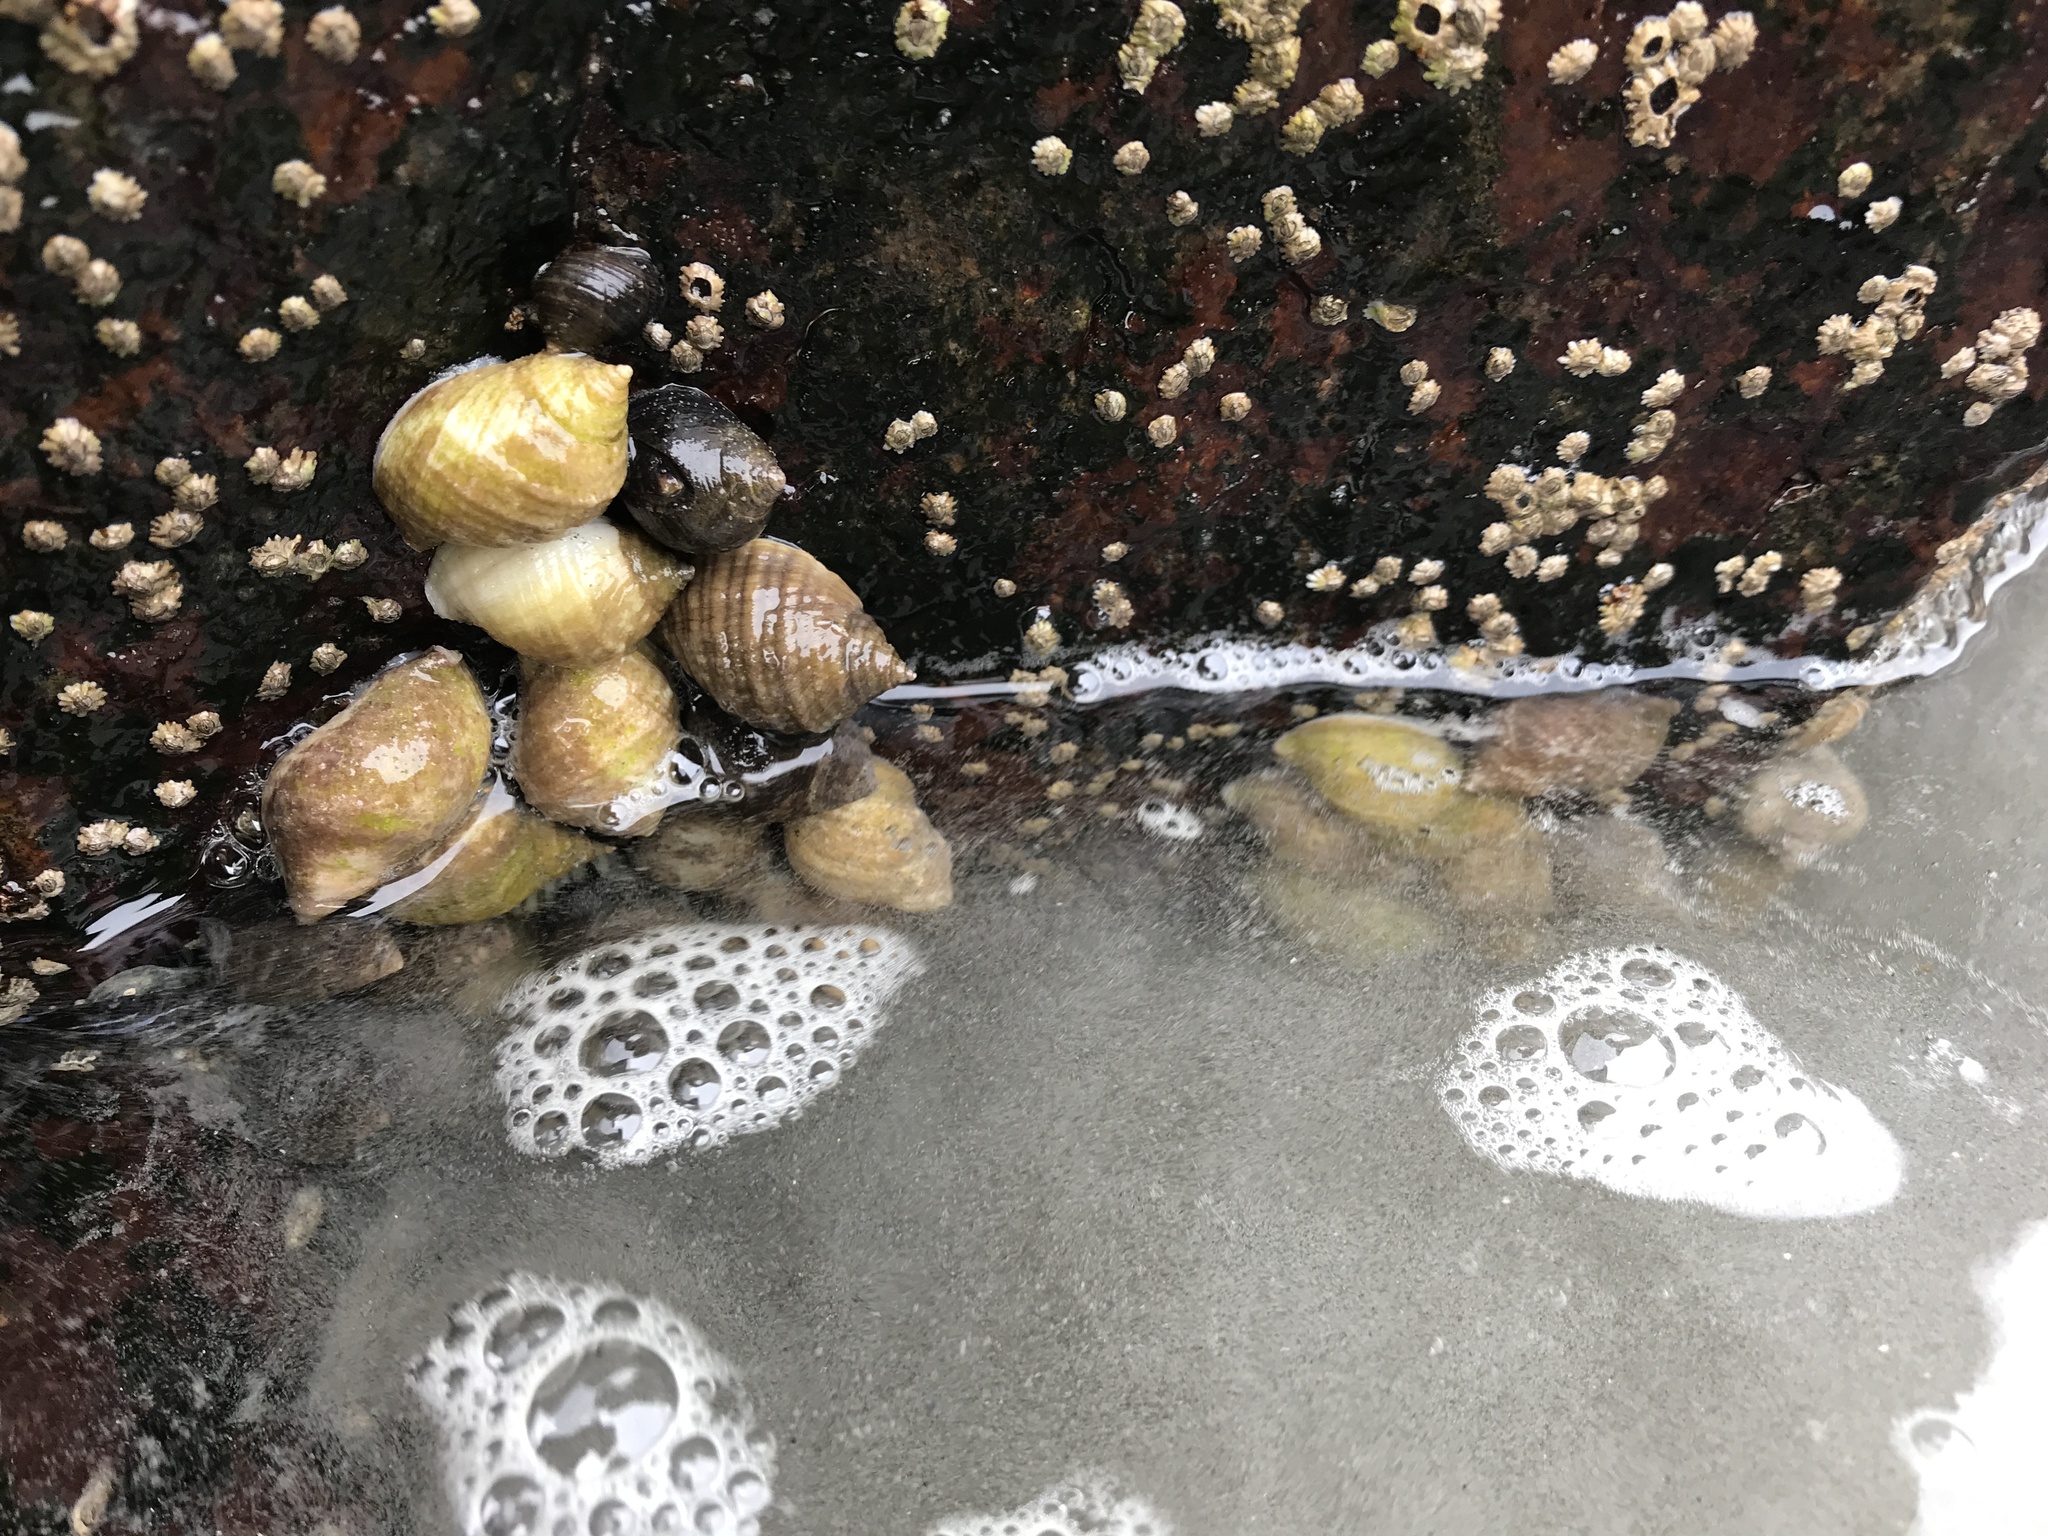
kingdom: Animalia
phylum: Mollusca
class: Gastropoda
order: Neogastropoda
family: Muricidae
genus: Nucella
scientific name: Nucella lapillus
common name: Dog whelk
